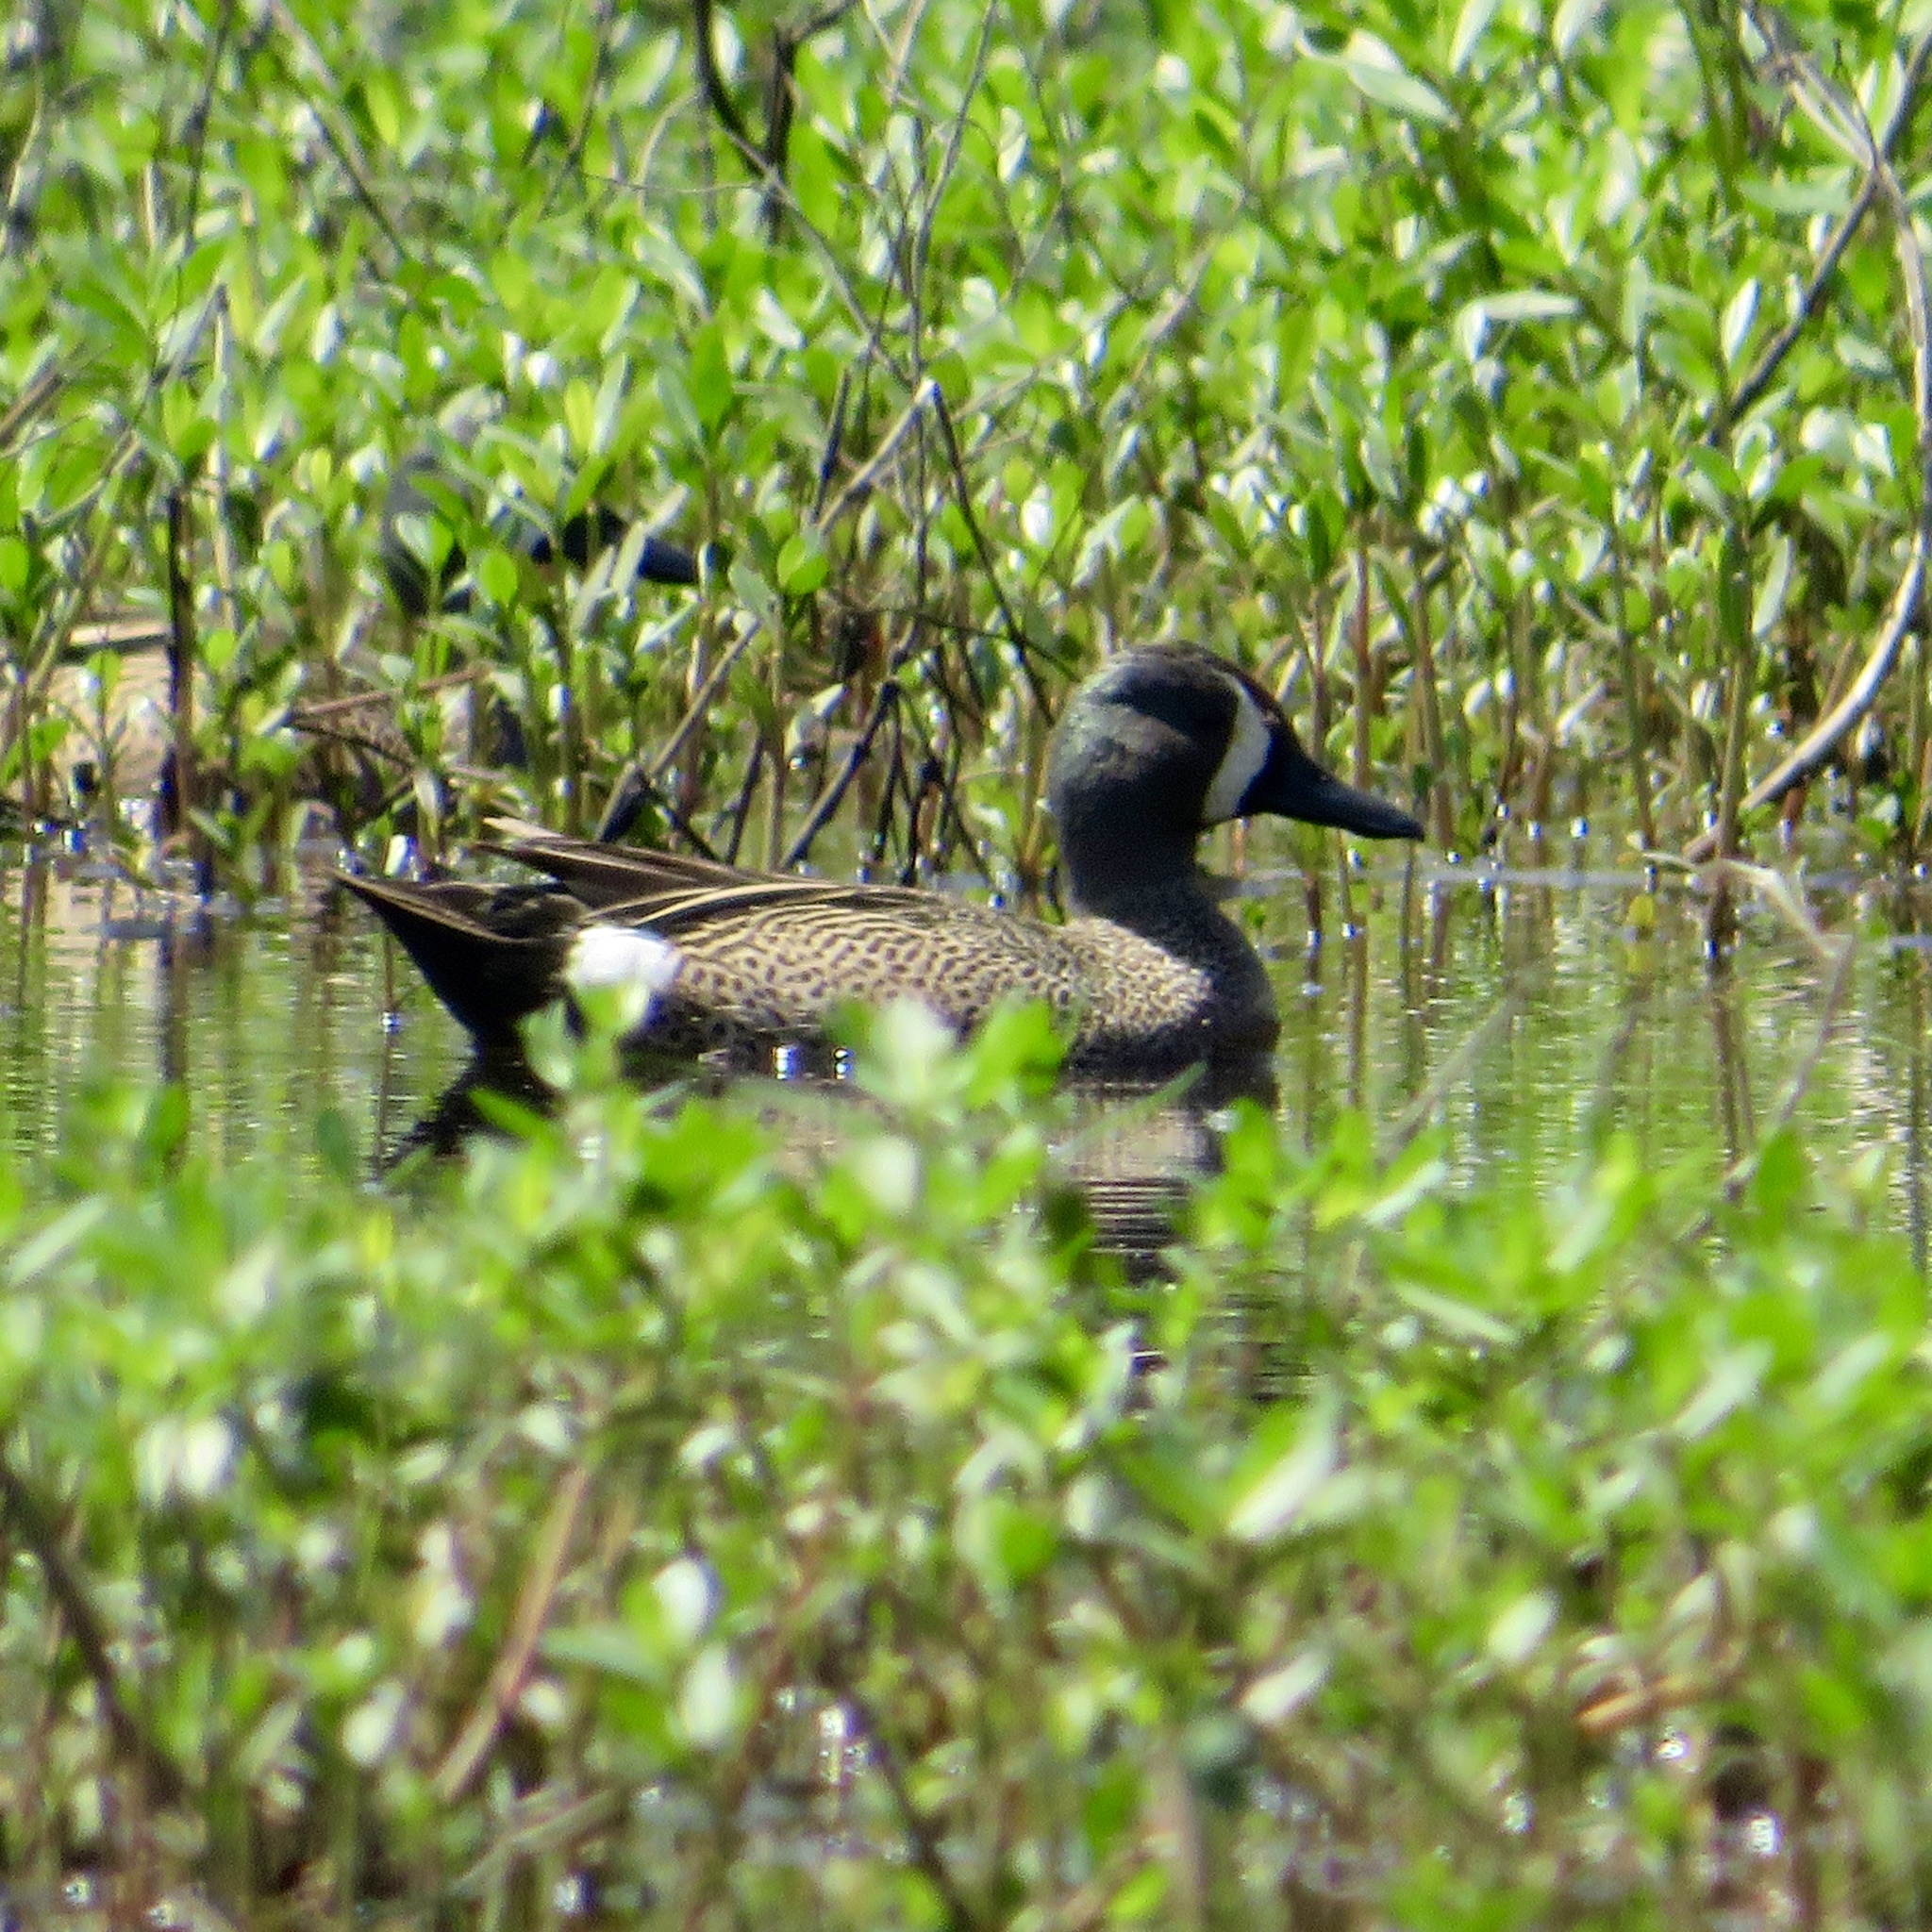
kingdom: Animalia
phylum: Chordata
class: Aves
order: Anseriformes
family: Anatidae
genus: Spatula
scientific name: Spatula discors
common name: Blue-winged teal
